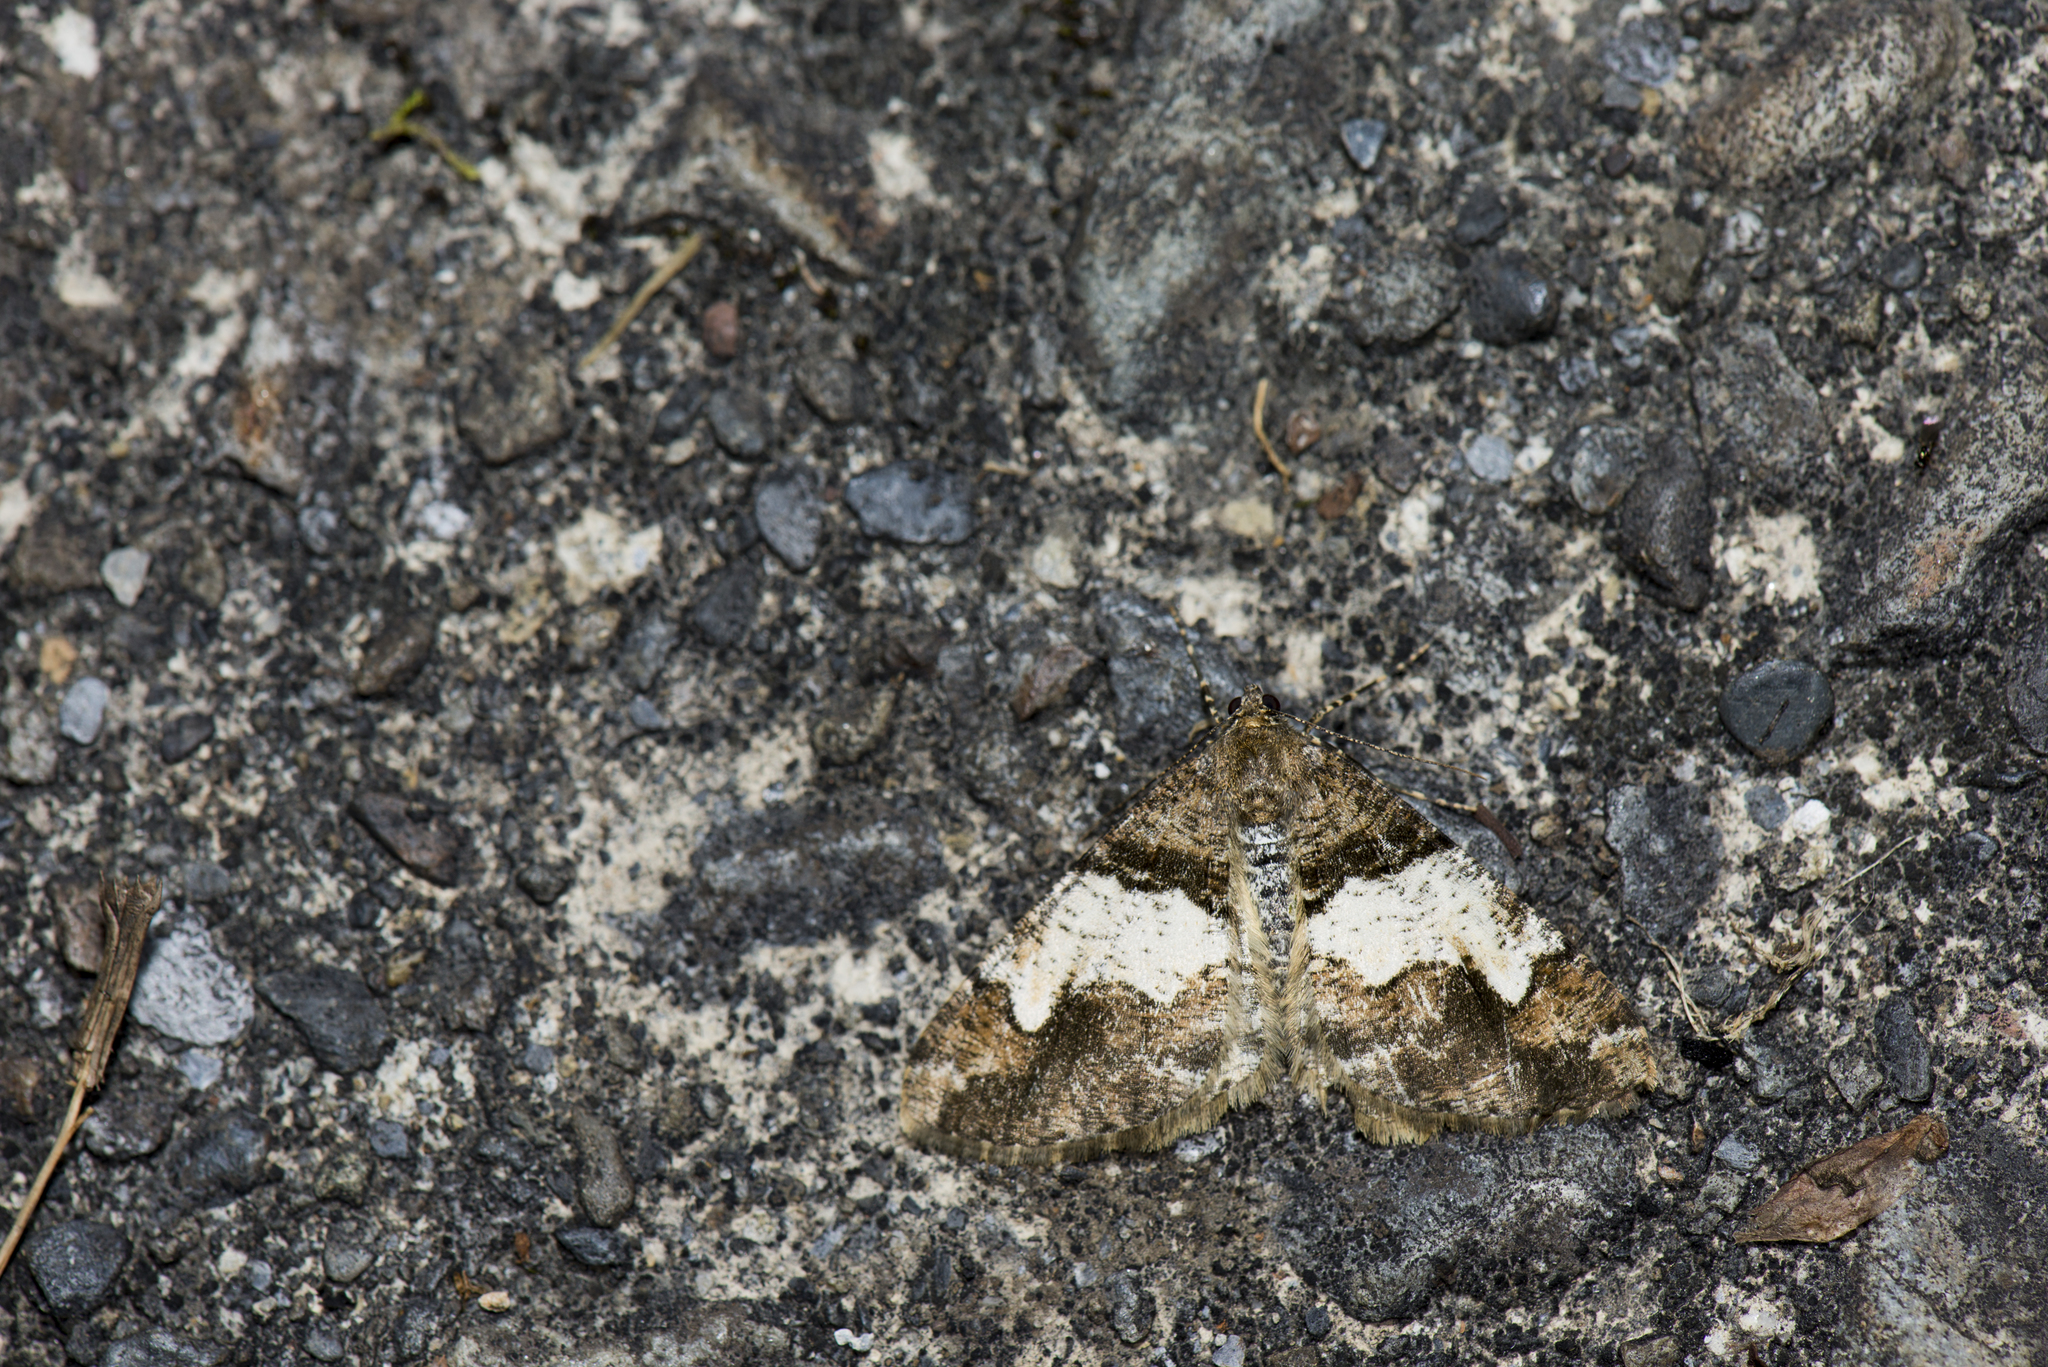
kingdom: Animalia
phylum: Arthropoda
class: Insecta
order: Lepidoptera
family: Geometridae
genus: Alcis
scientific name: Alcis tayulina
